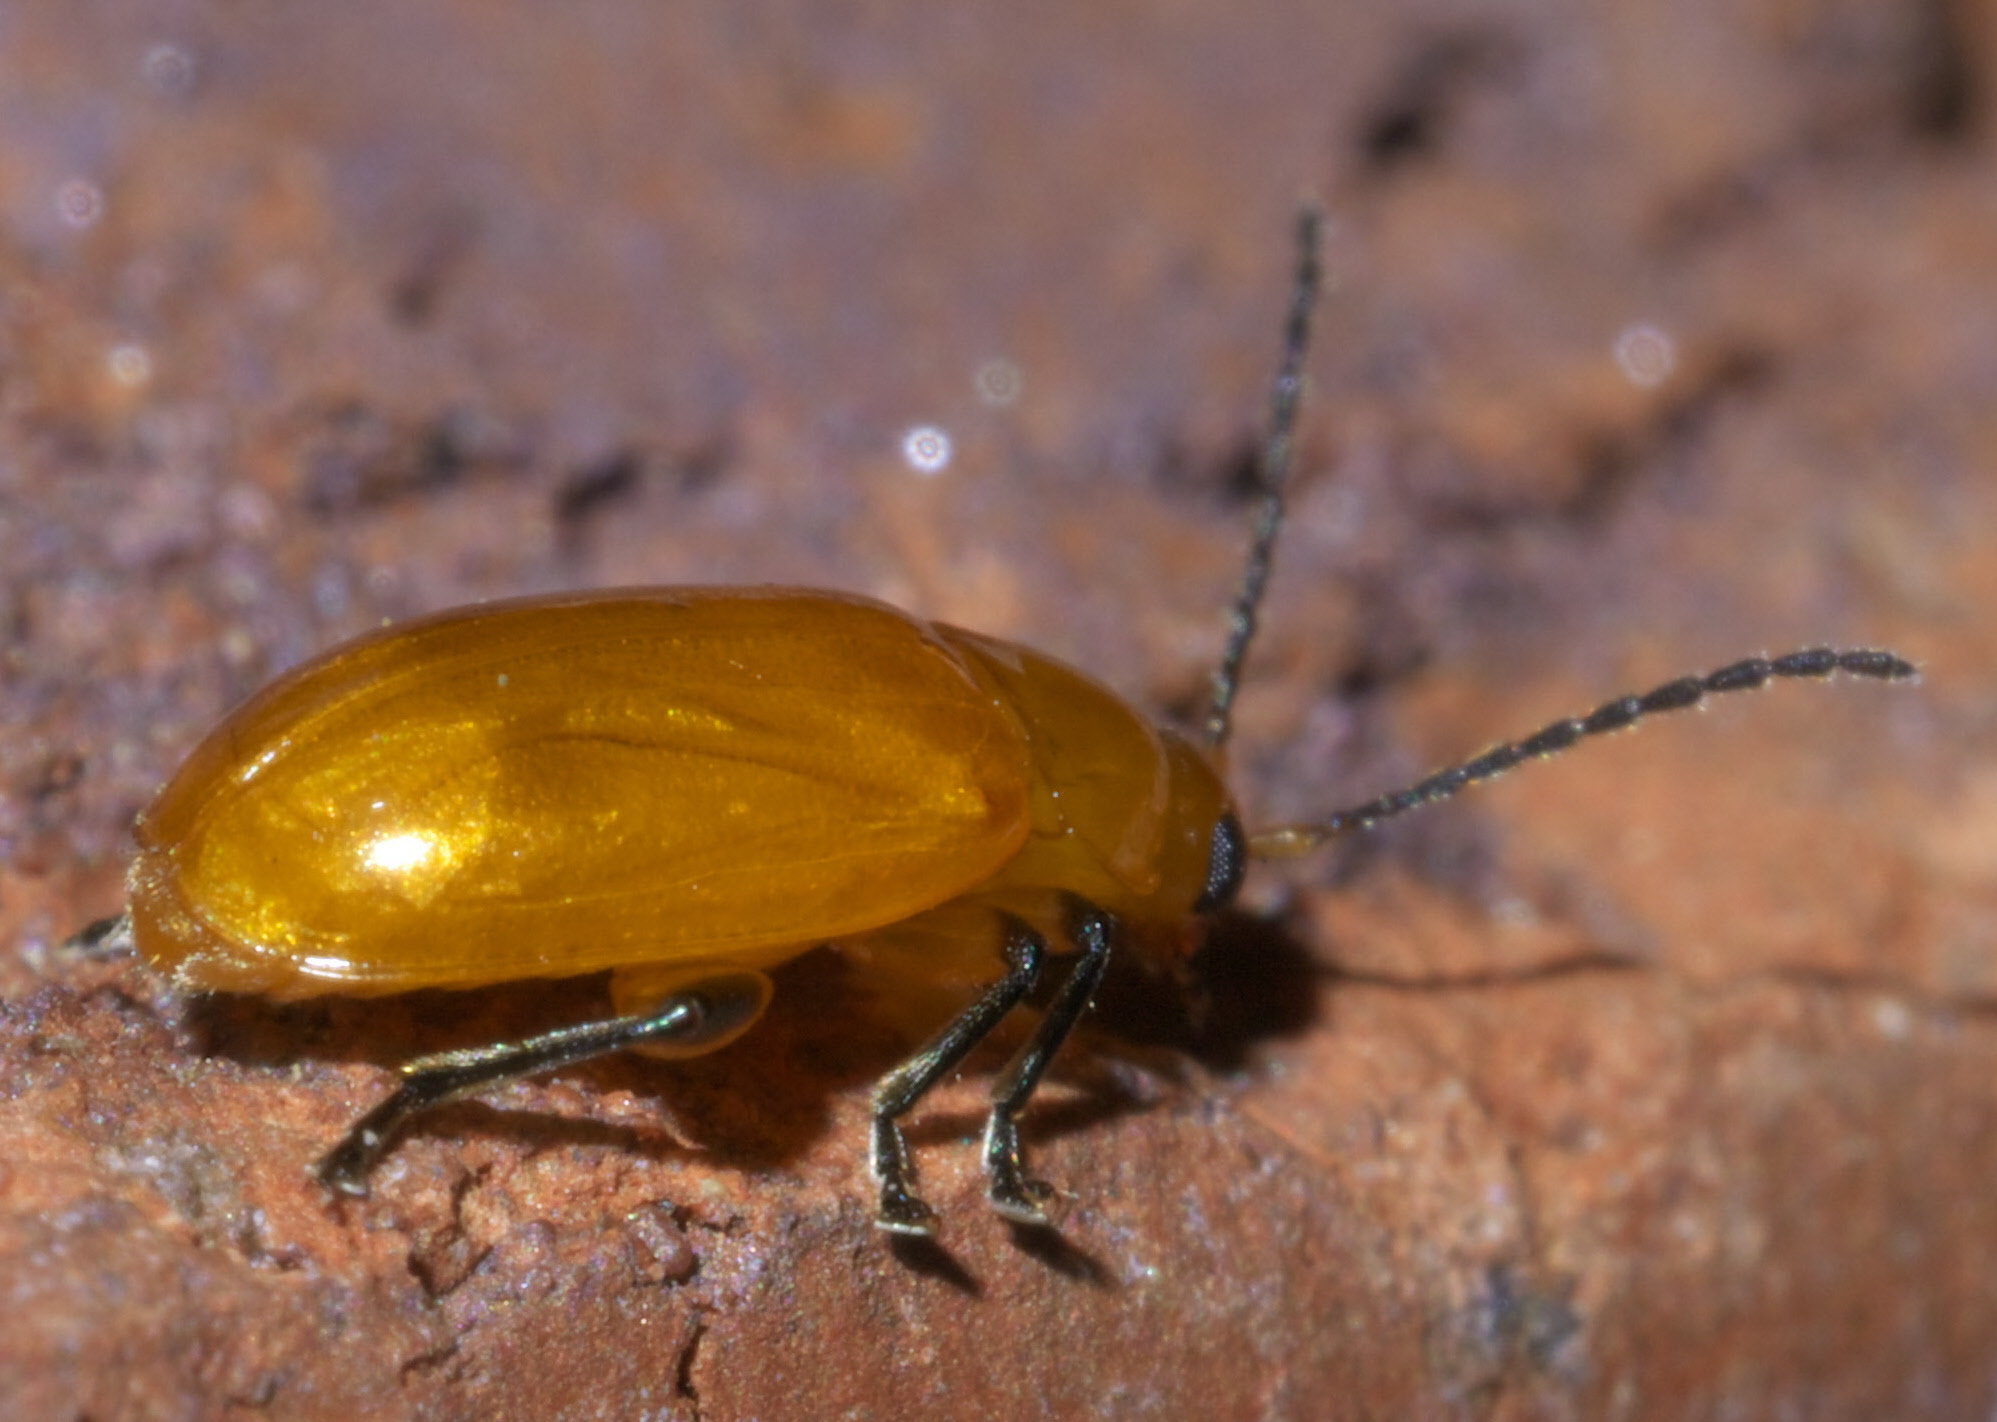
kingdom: Animalia
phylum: Arthropoda
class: Insecta
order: Coleoptera
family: Chrysomelidae
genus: Parchicola
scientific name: Parchicola tibialis
